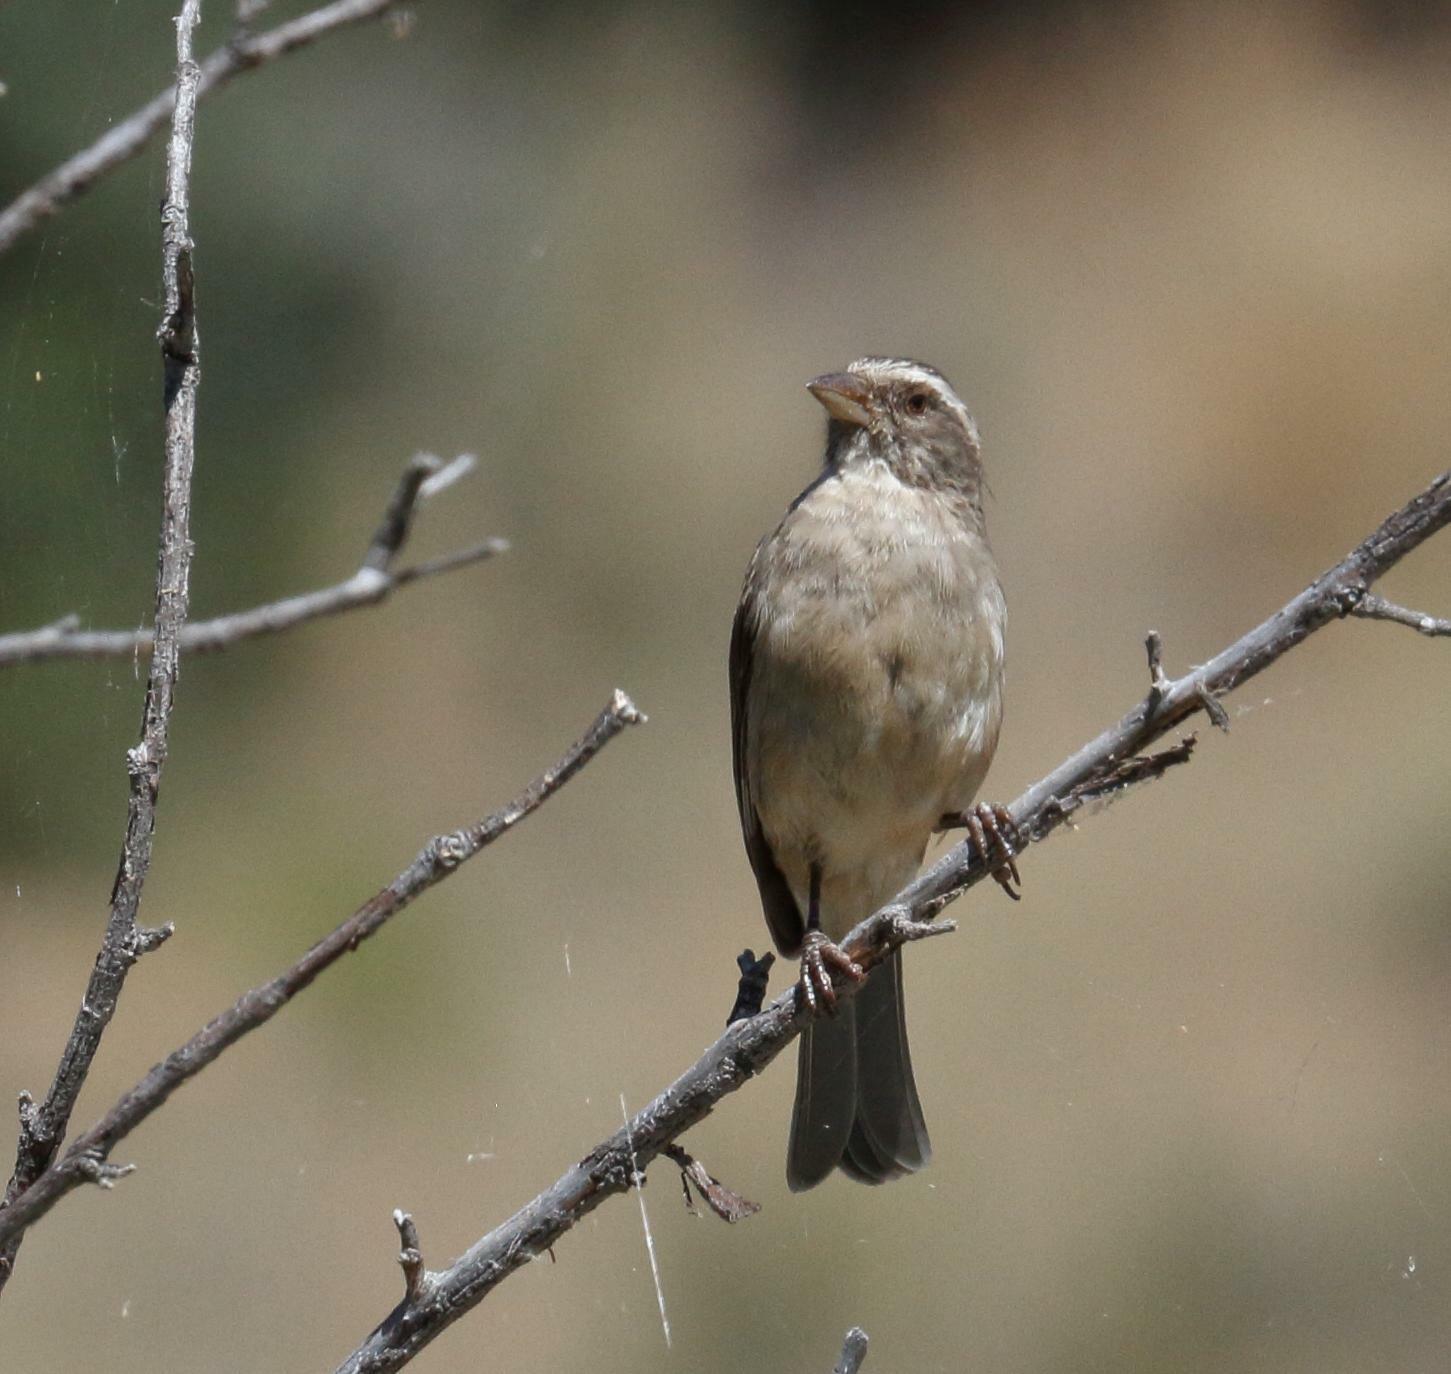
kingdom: Animalia
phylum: Chordata
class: Aves
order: Passeriformes
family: Fringillidae
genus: Crithagra
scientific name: Crithagra gularis
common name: Streaky-headed seedeater
